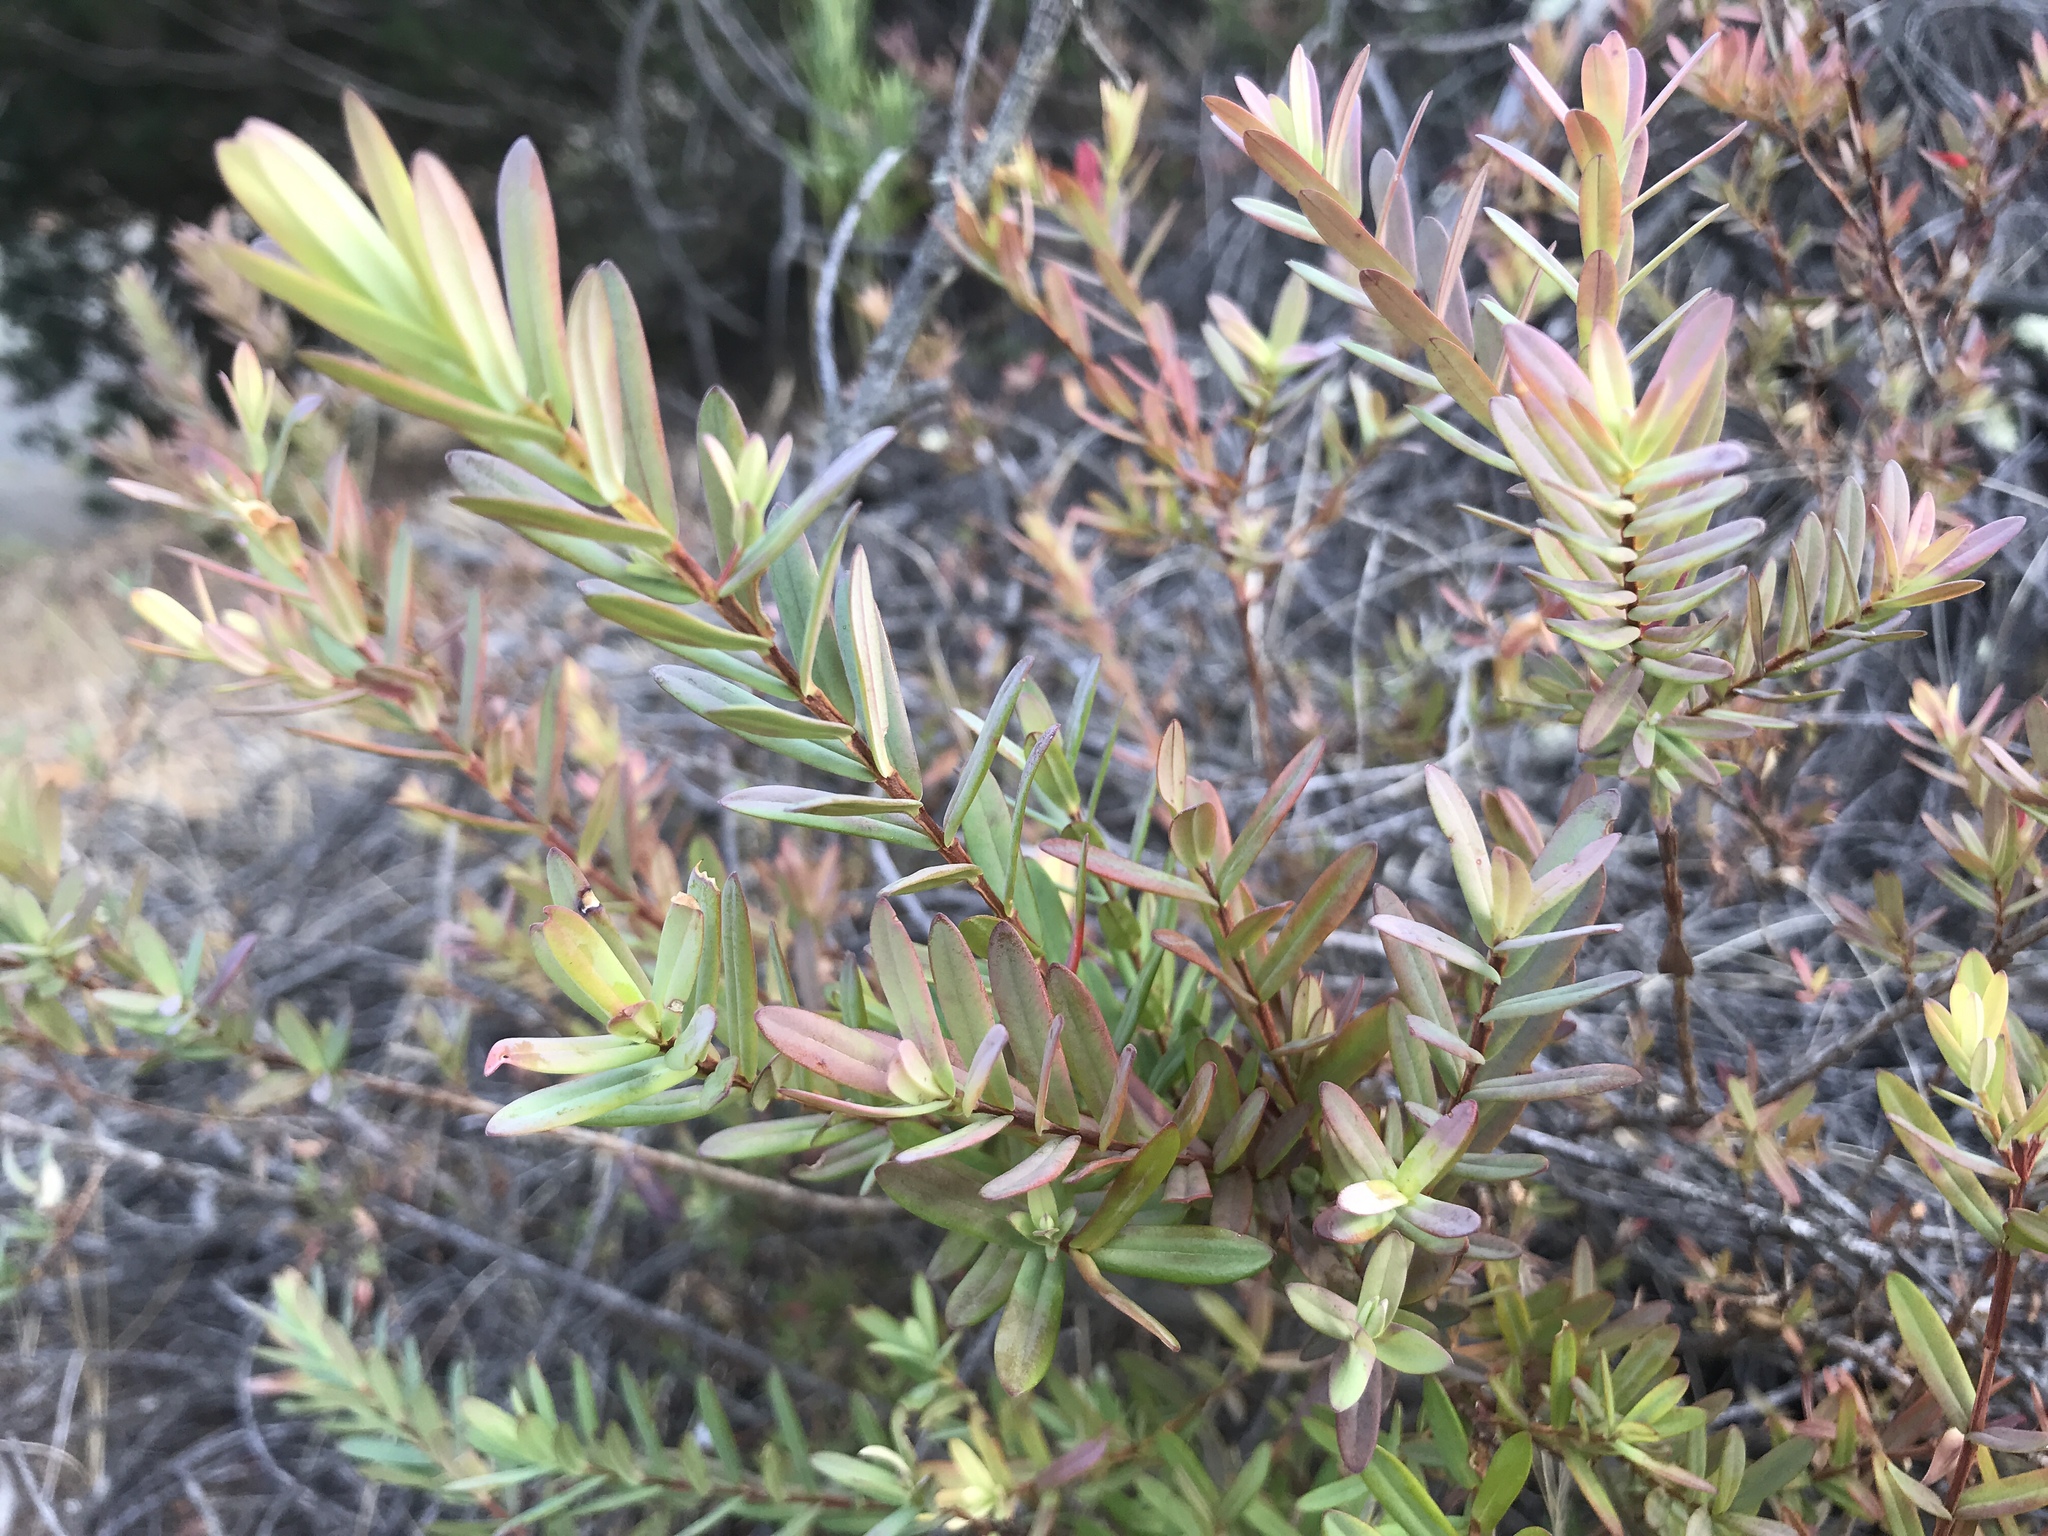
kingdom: Plantae
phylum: Tracheophyta
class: Magnoliopsida
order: Myrtales
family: Myrtaceae
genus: Darwinia
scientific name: Darwinia citriodora
